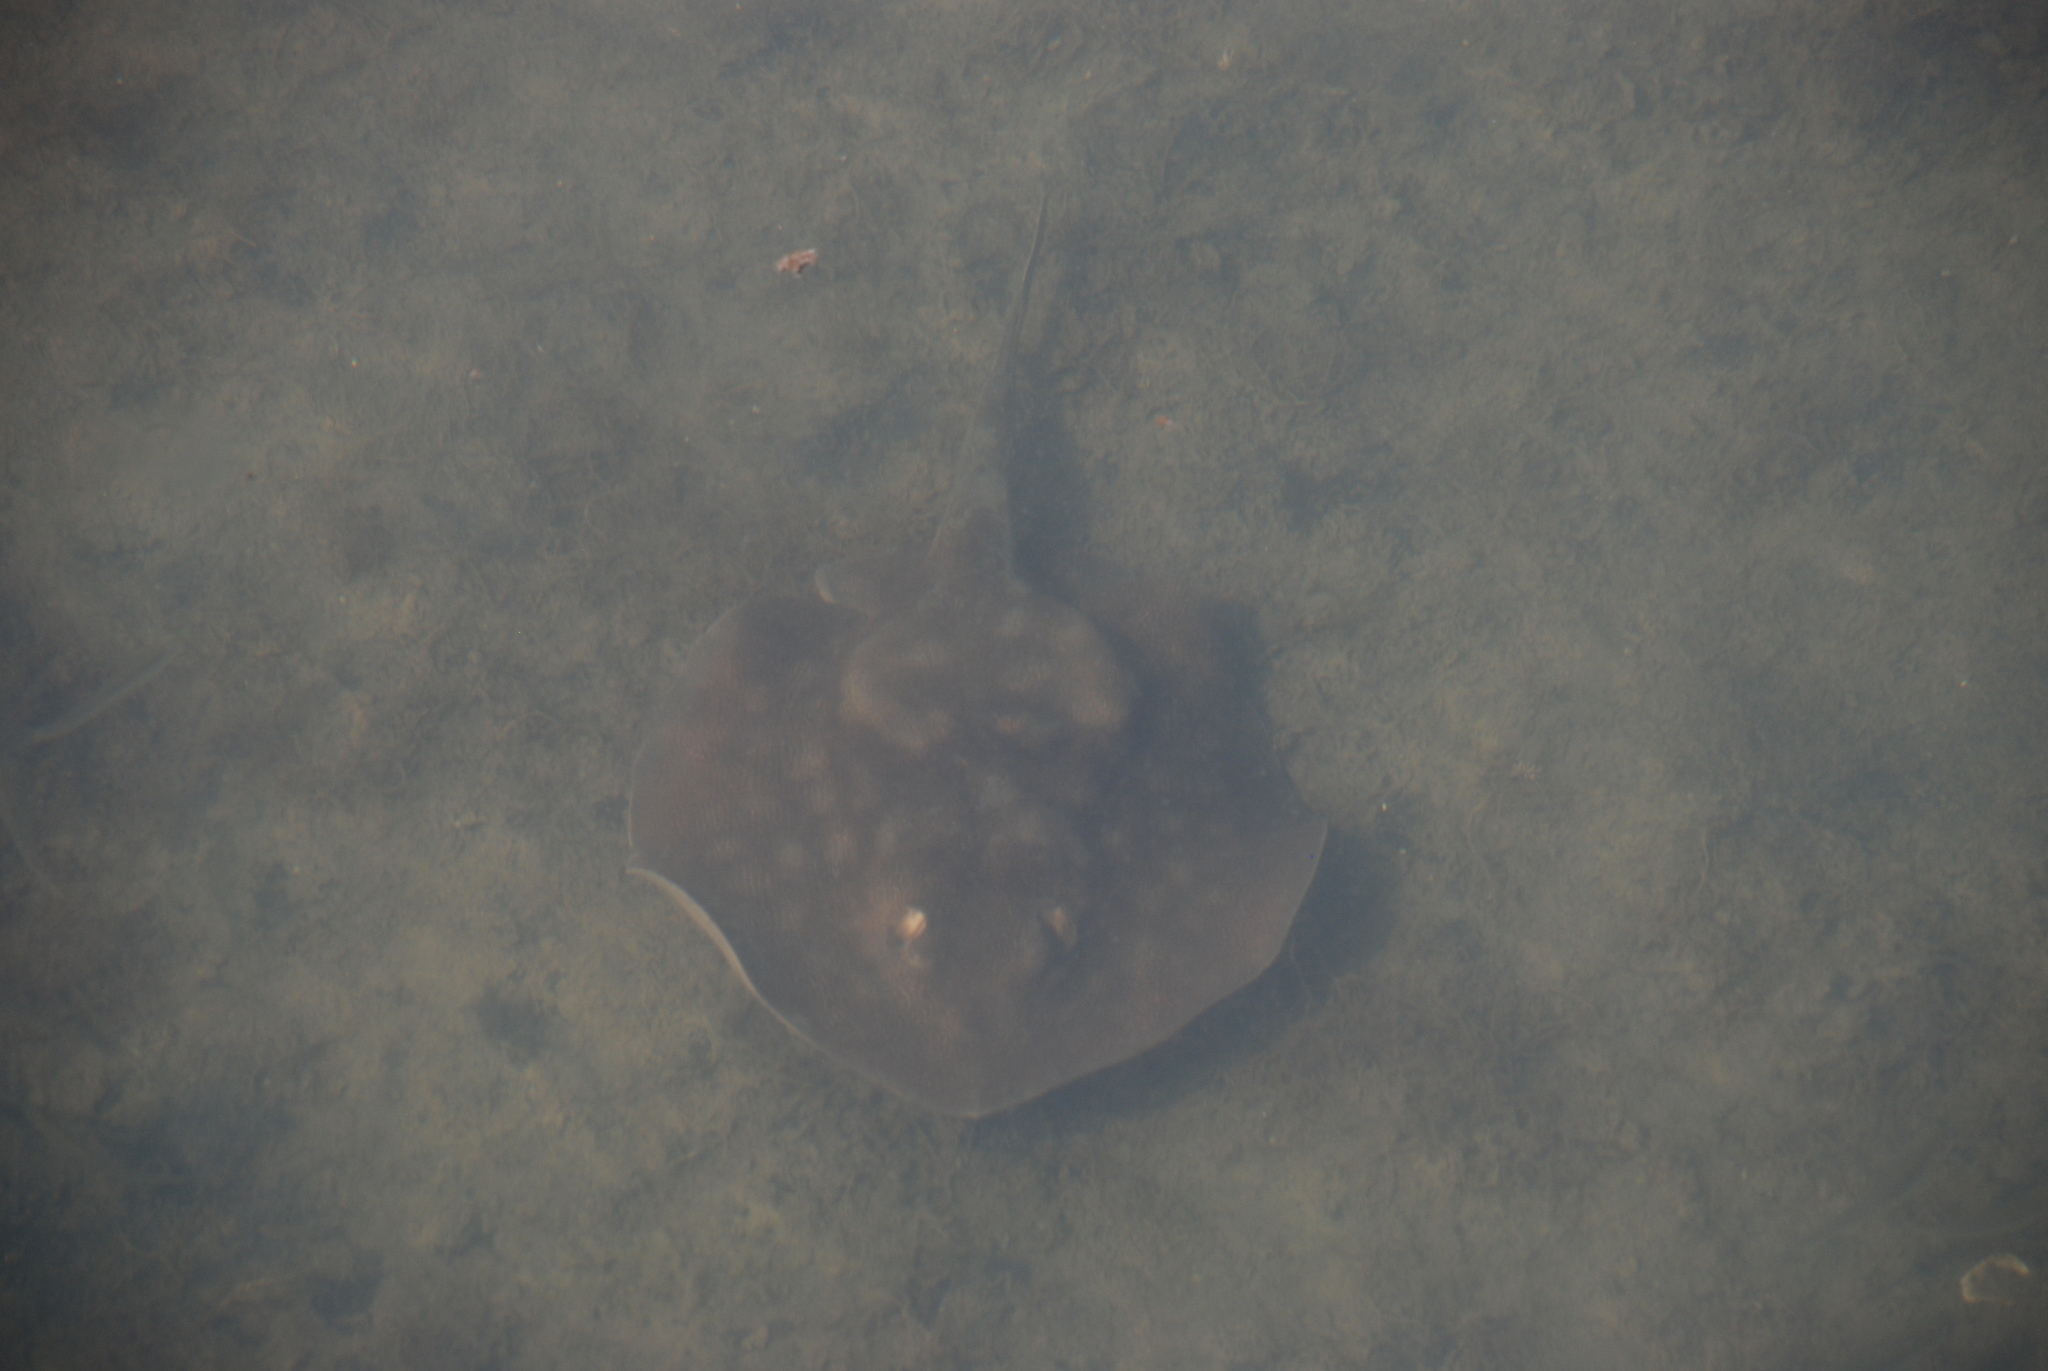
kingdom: Animalia
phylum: Chordata
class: Elasmobranchii
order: Myliobatiformes
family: Urolophidae
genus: Urolophus
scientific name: Urolophus halleri
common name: Round stingray
